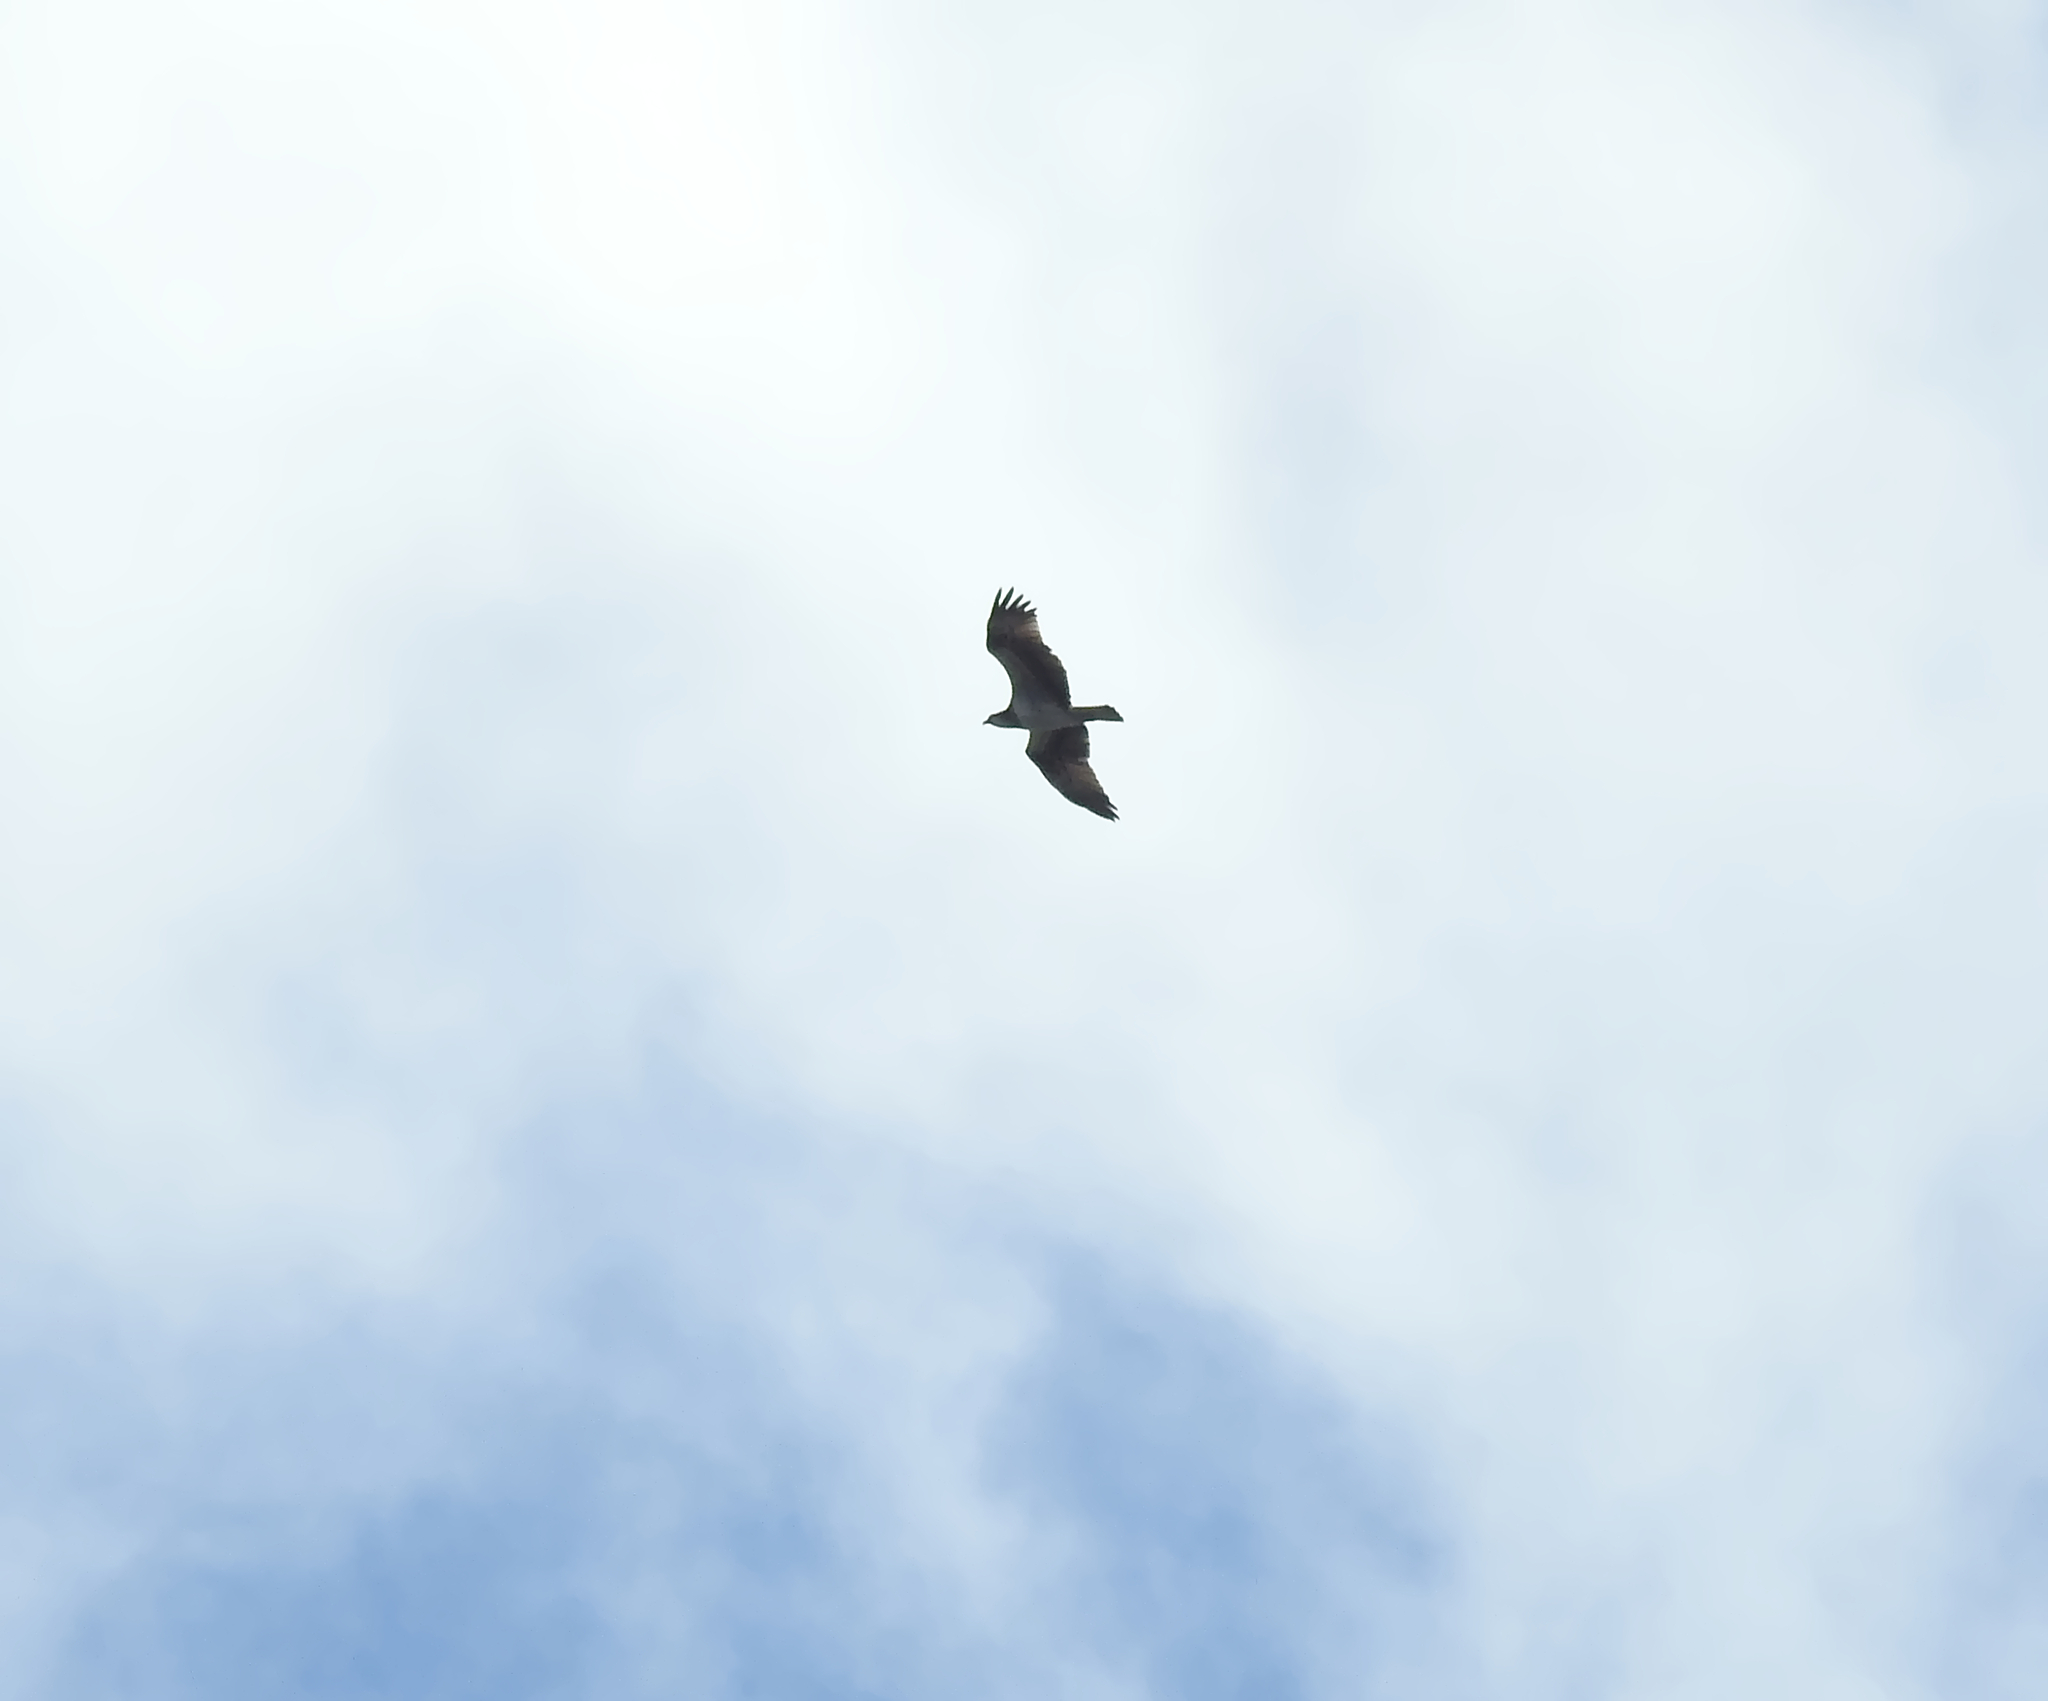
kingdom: Animalia
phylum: Chordata
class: Aves
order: Accipitriformes
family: Pandionidae
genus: Pandion
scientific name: Pandion haliaetus
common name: Osprey
